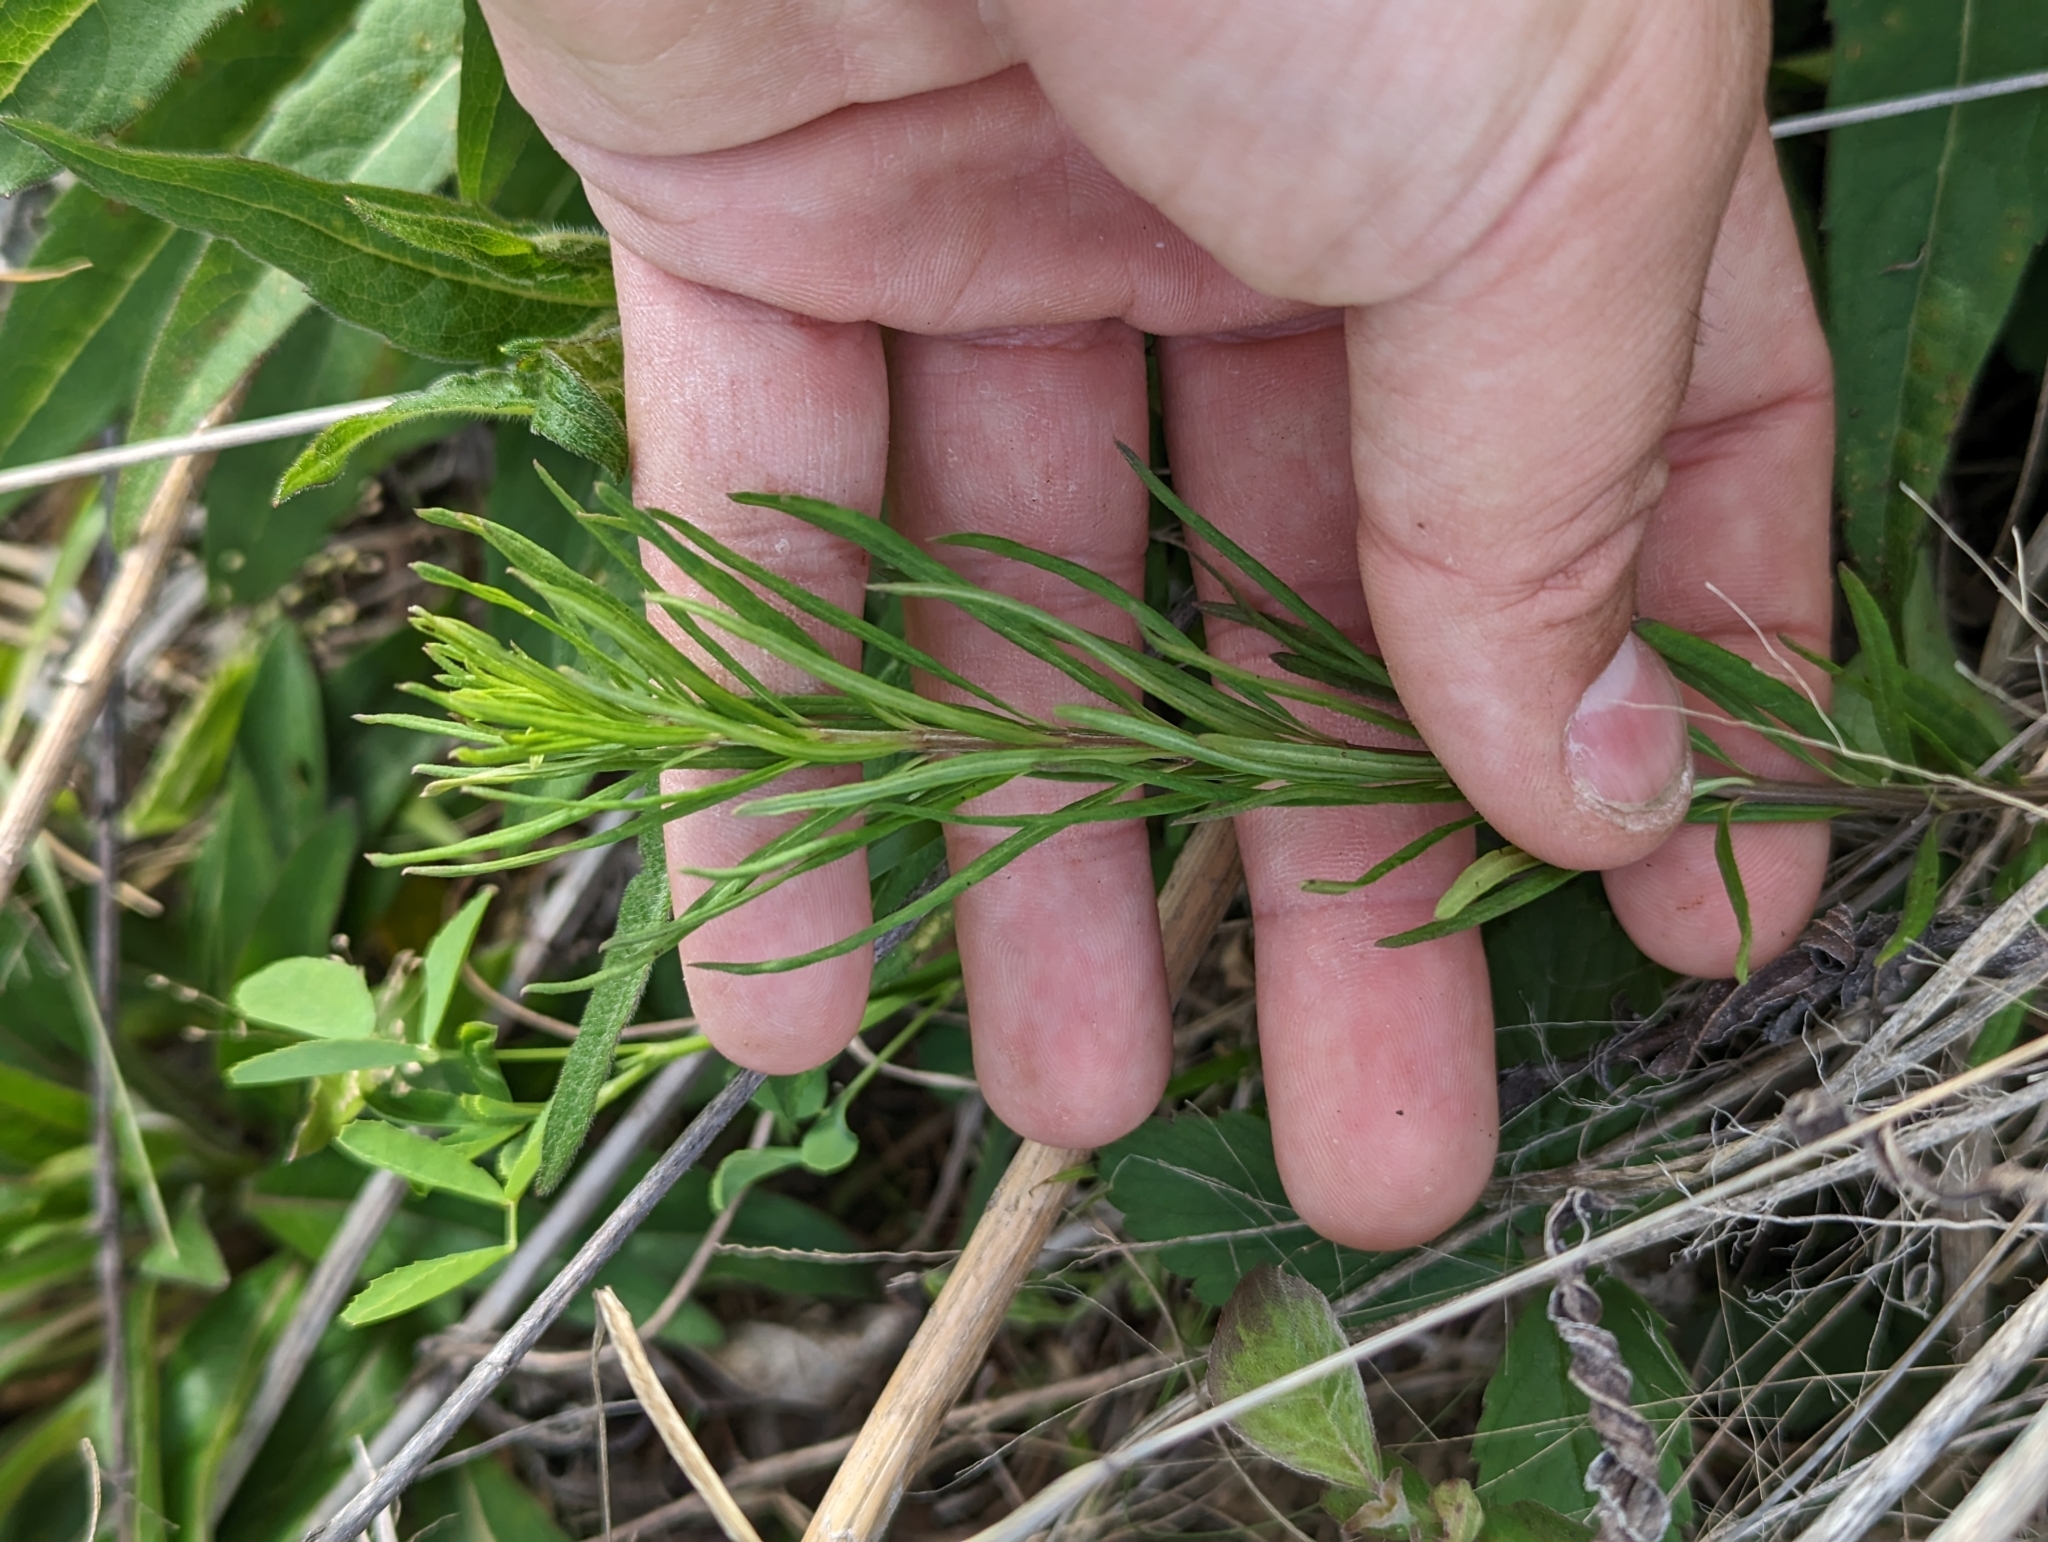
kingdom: Plantae
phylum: Tracheophyta
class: Magnoliopsida
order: Gentianales
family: Apocynaceae
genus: Asclepias
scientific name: Asclepias verticillata
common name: Eastern whorled milkweed
